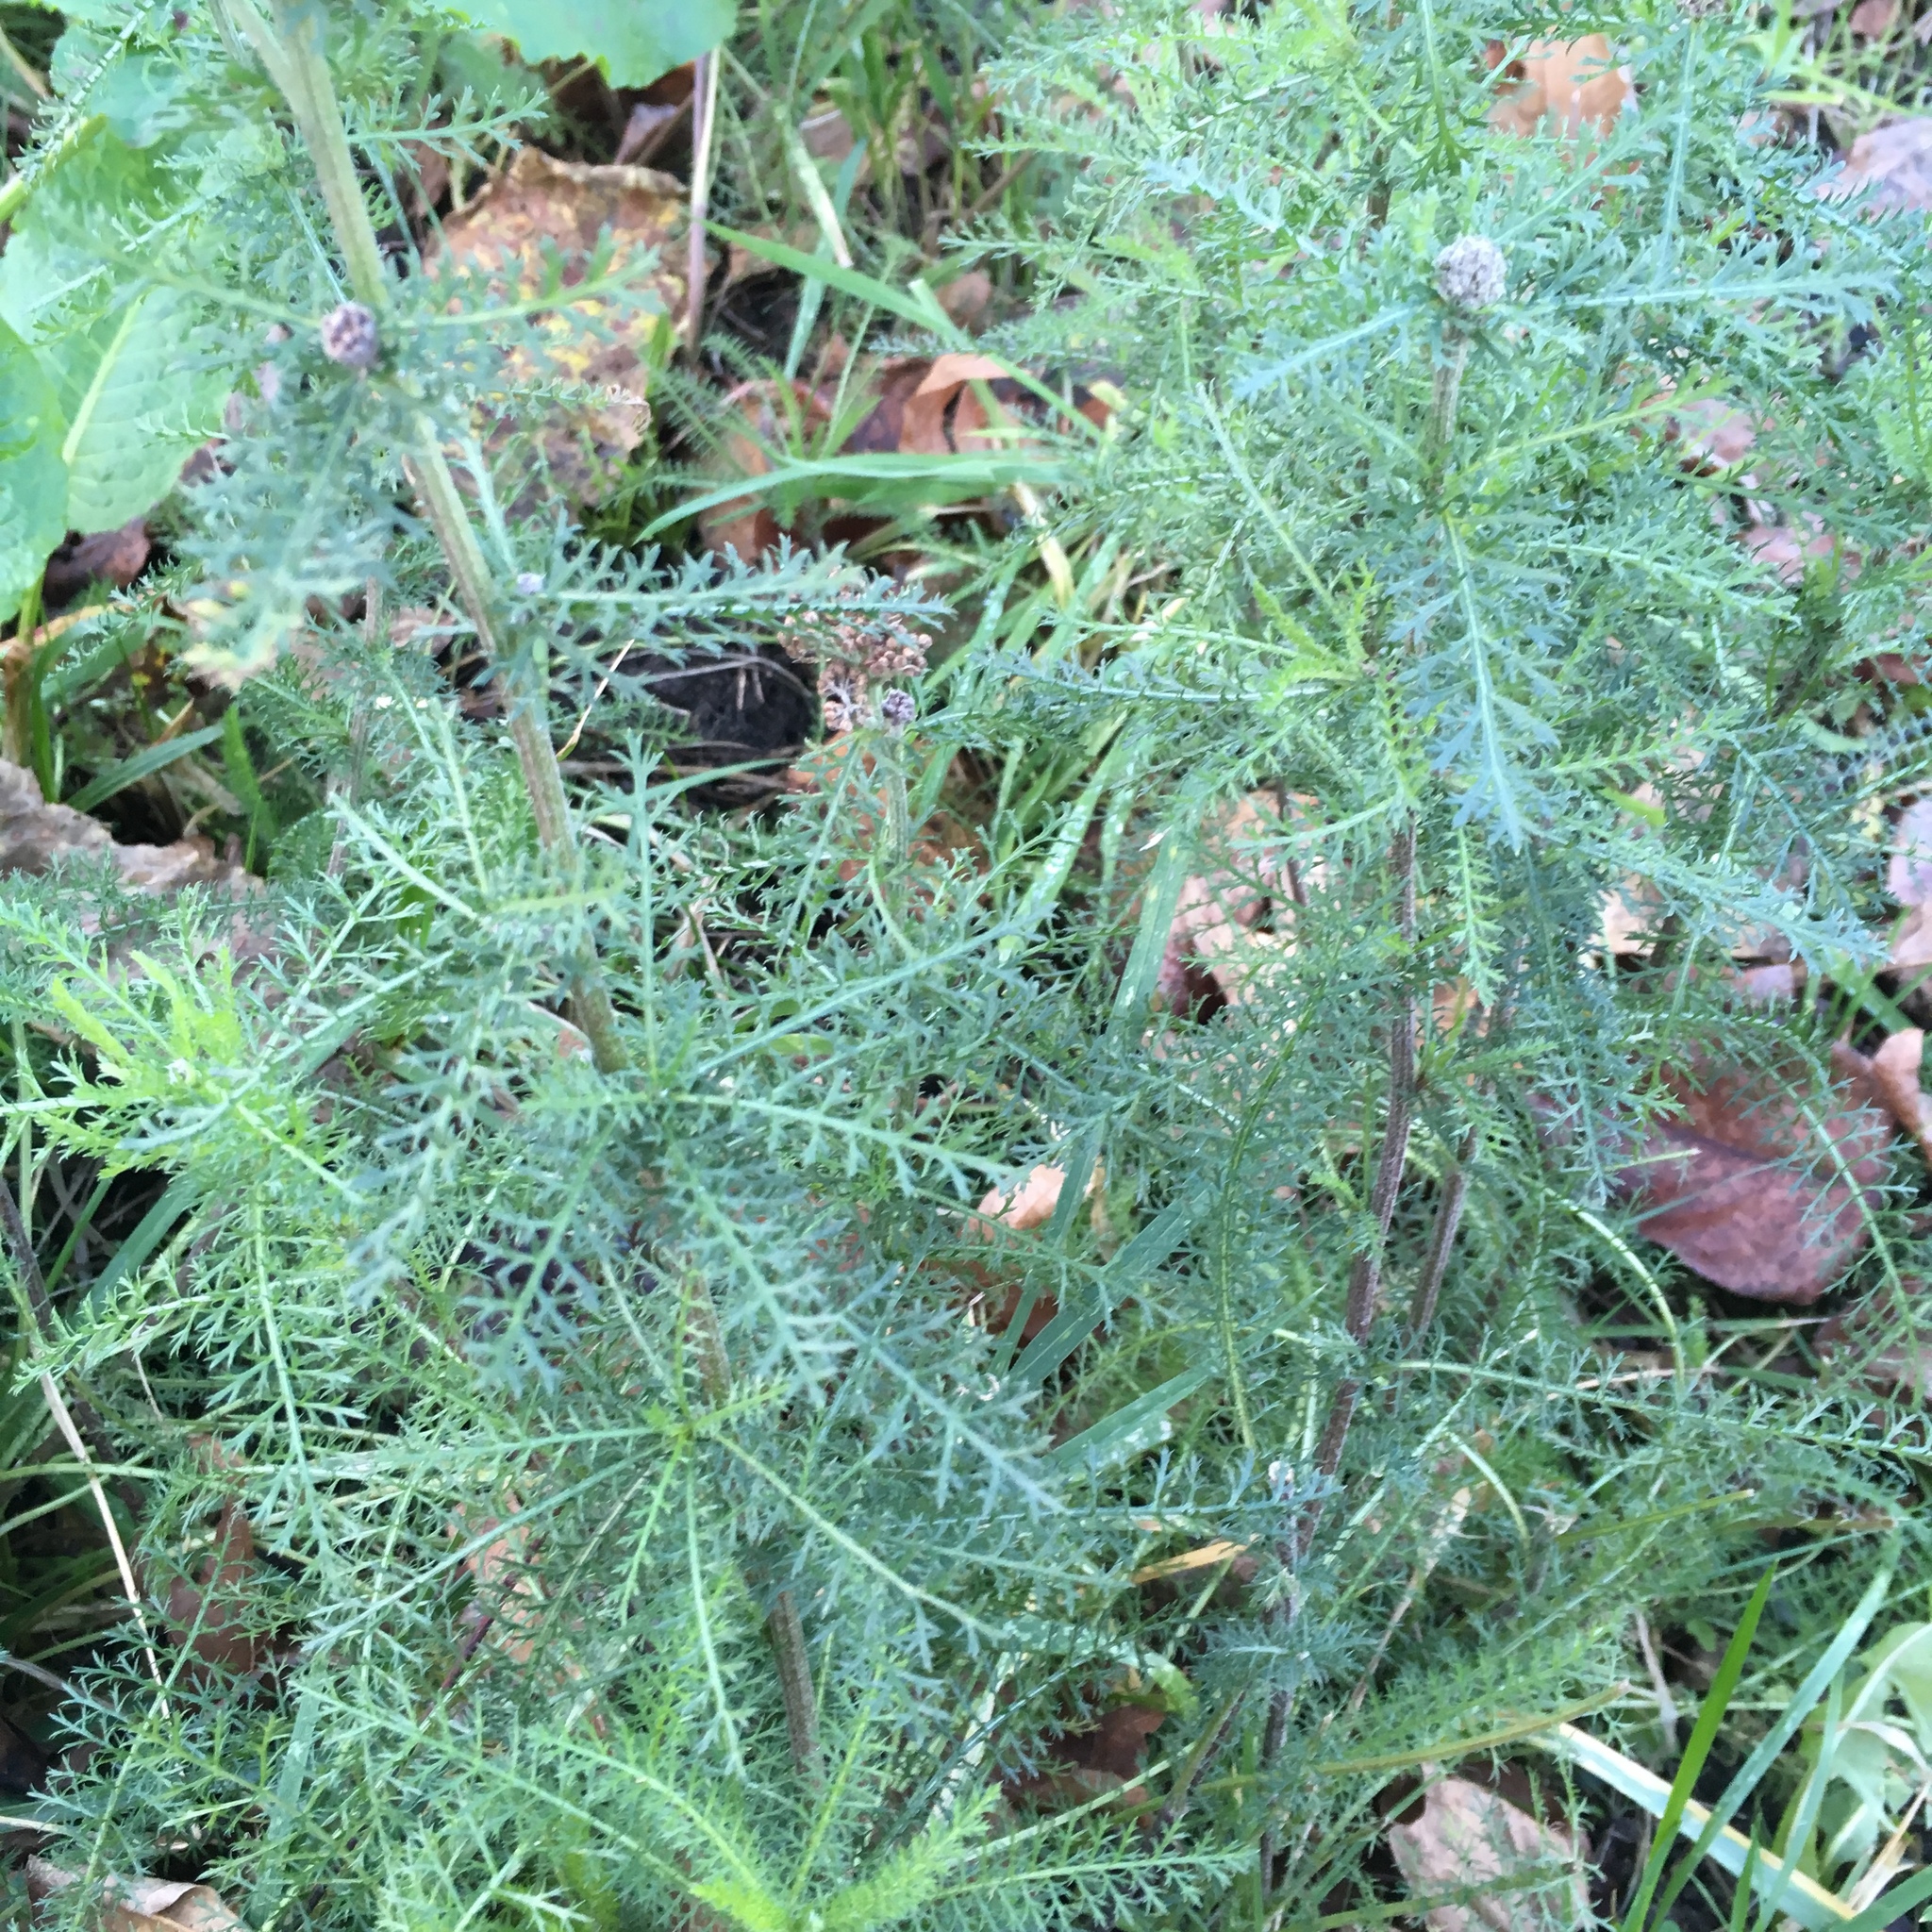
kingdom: Plantae
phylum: Tracheophyta
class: Magnoliopsida
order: Asterales
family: Asteraceae
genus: Achillea
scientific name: Achillea millefolium
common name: Yarrow
